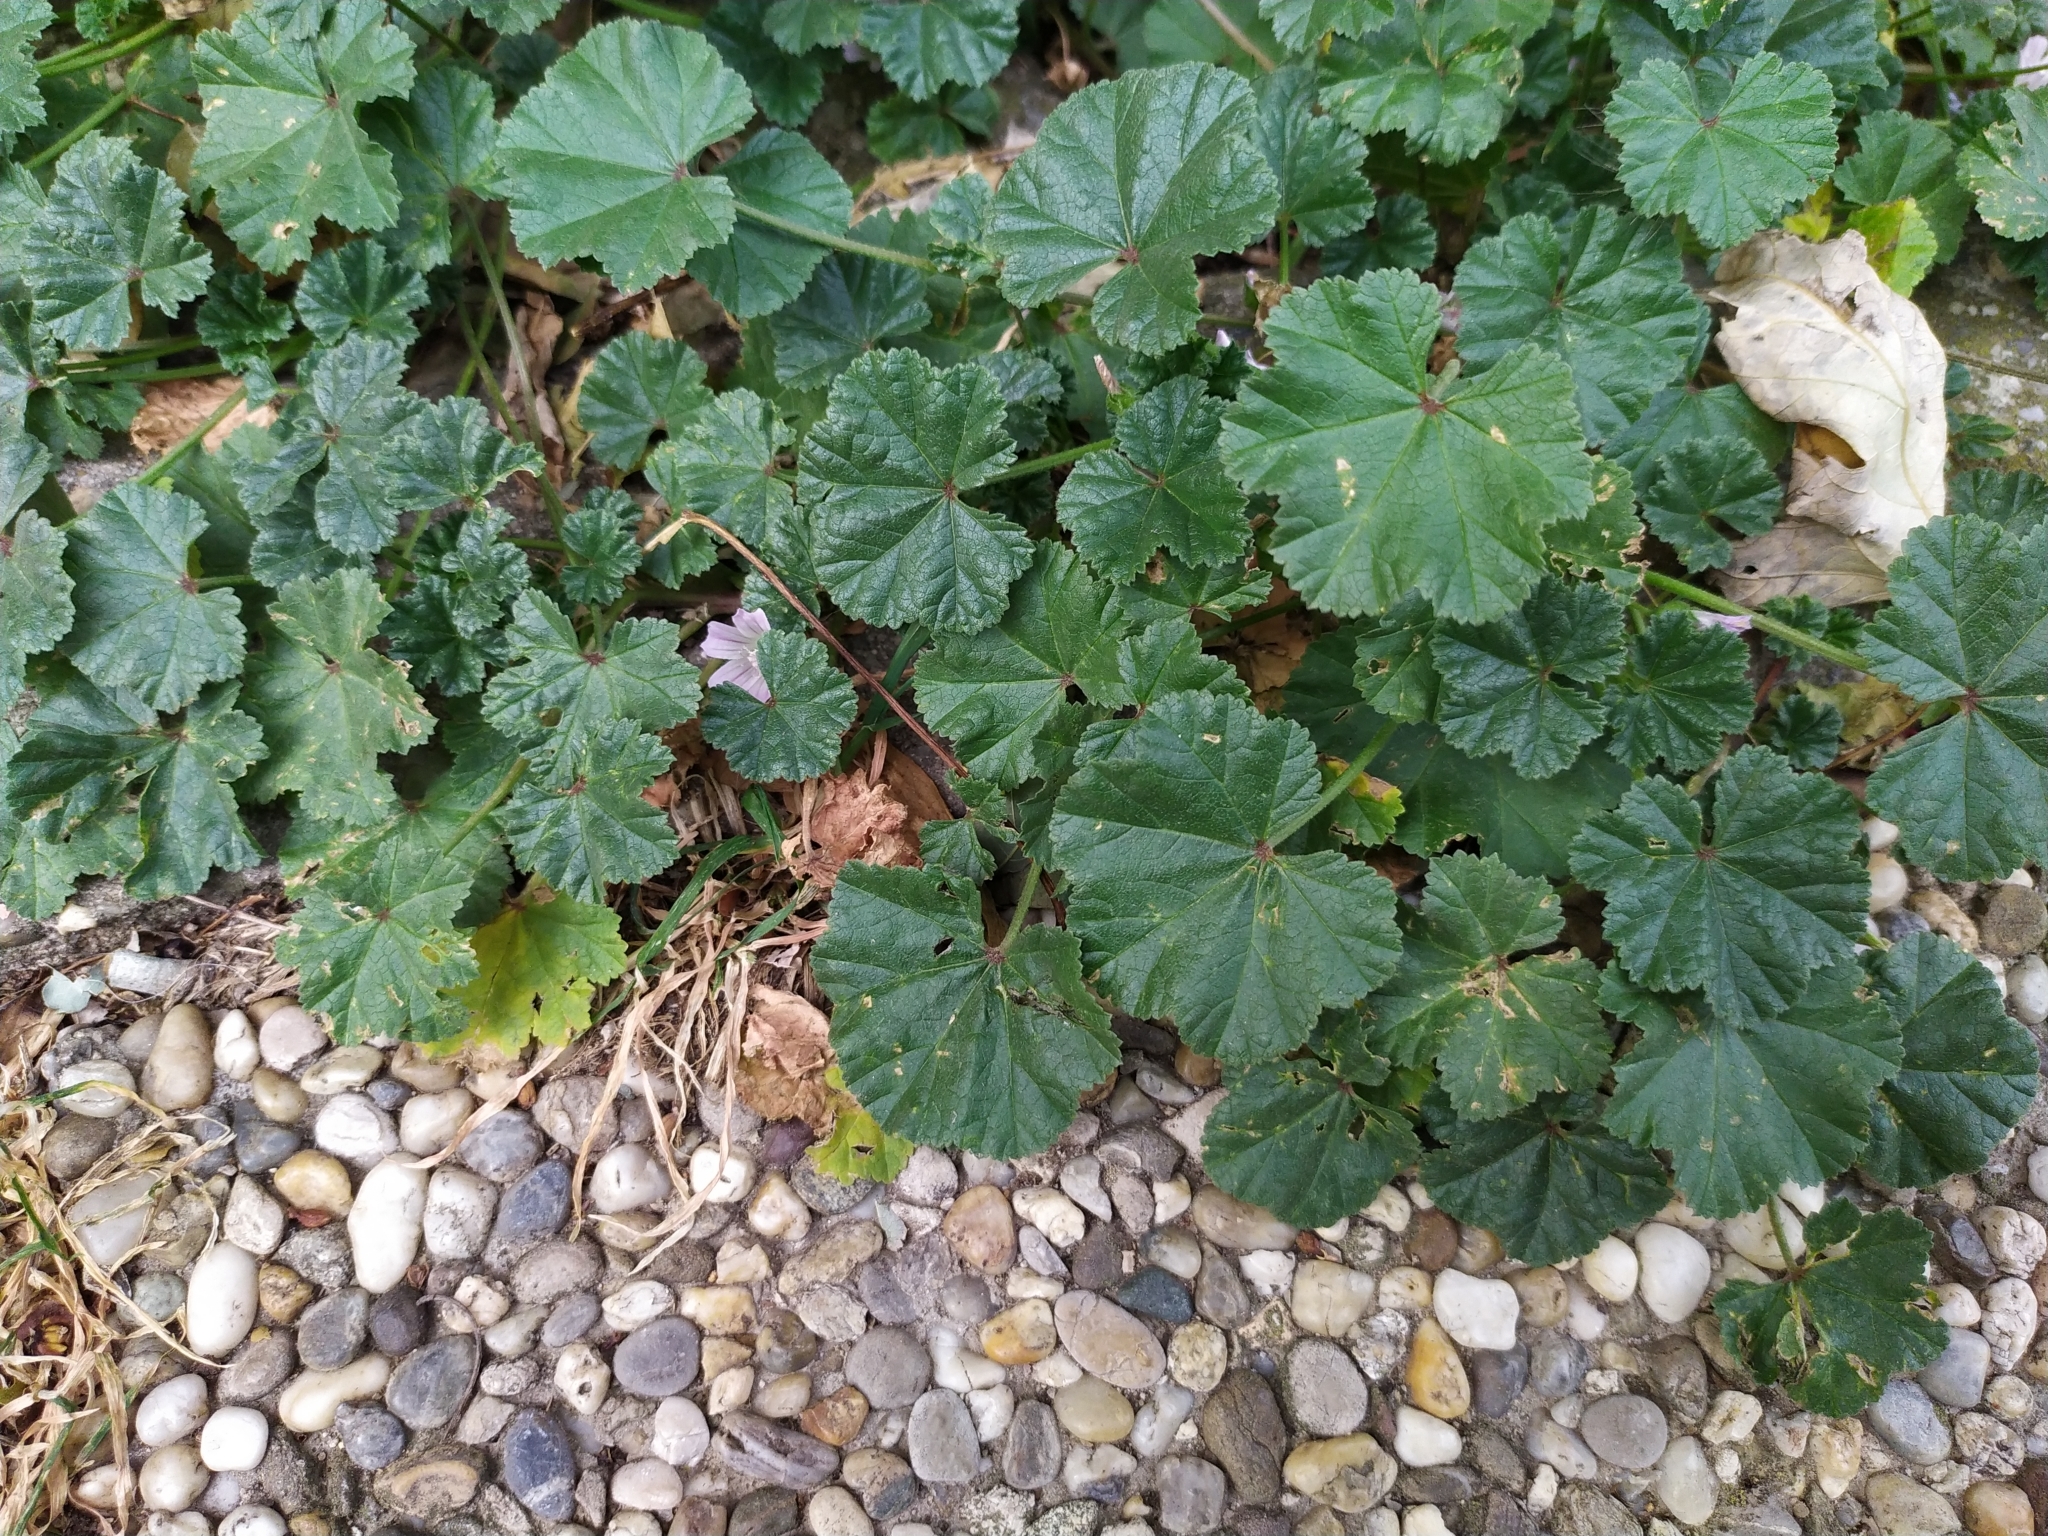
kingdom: Plantae
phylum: Tracheophyta
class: Magnoliopsida
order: Malvales
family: Malvaceae
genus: Malva
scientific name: Malva neglecta
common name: Common mallow
